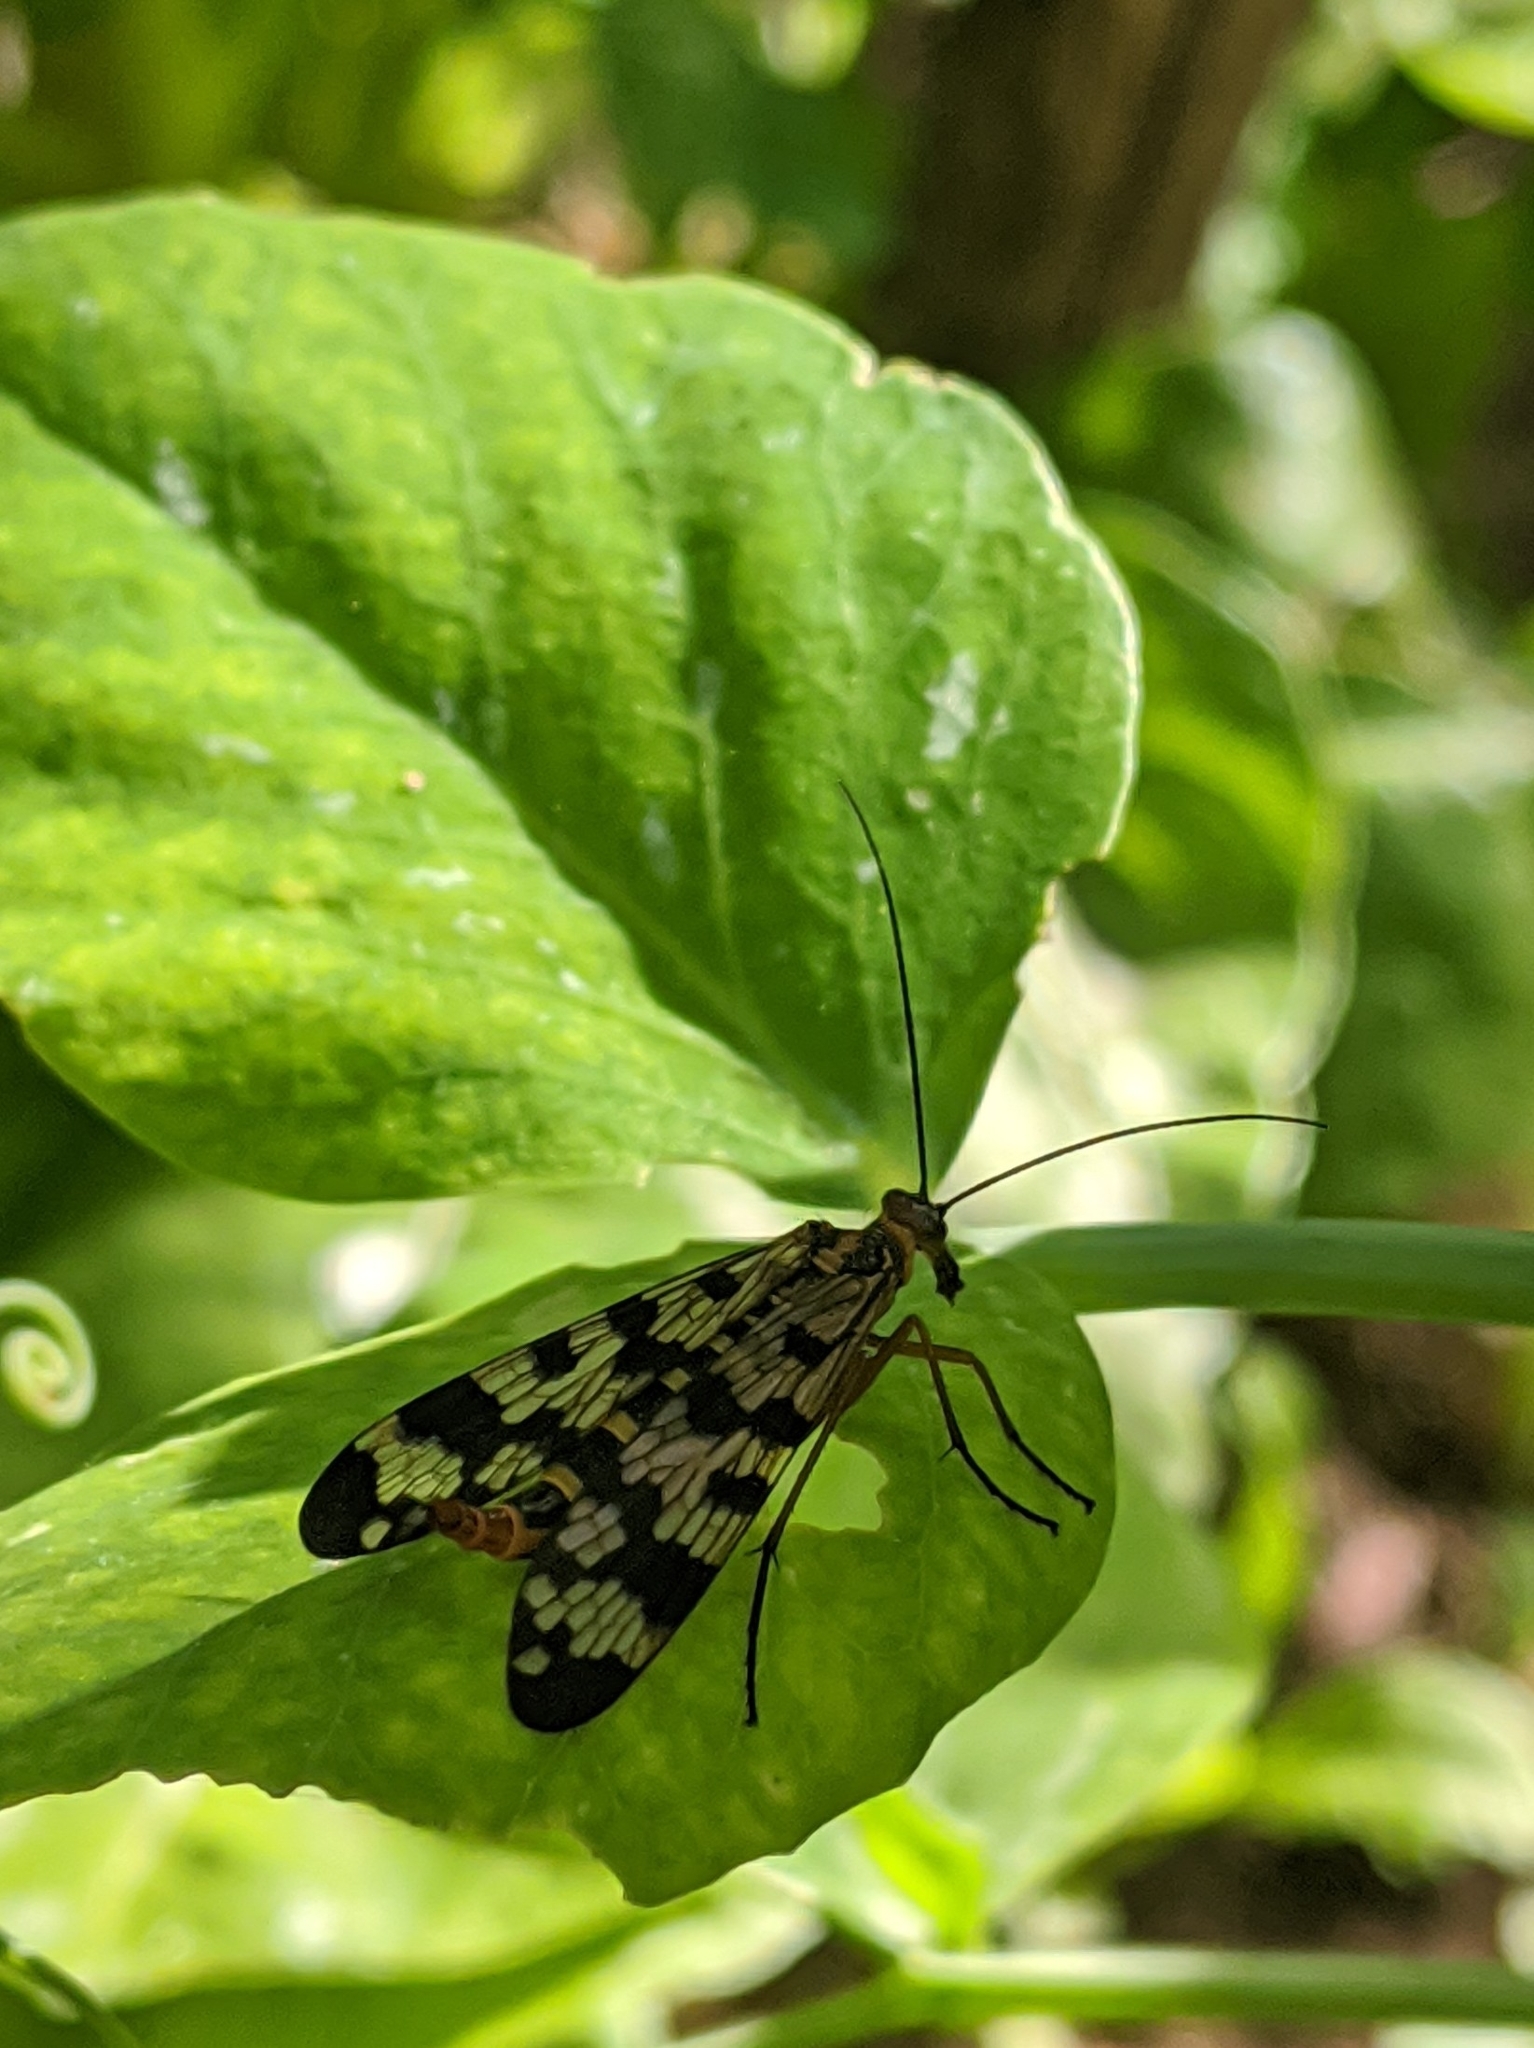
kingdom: Animalia
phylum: Arthropoda
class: Insecta
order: Mecoptera
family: Panorpidae
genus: Panorpa
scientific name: Panorpa meridionalis
